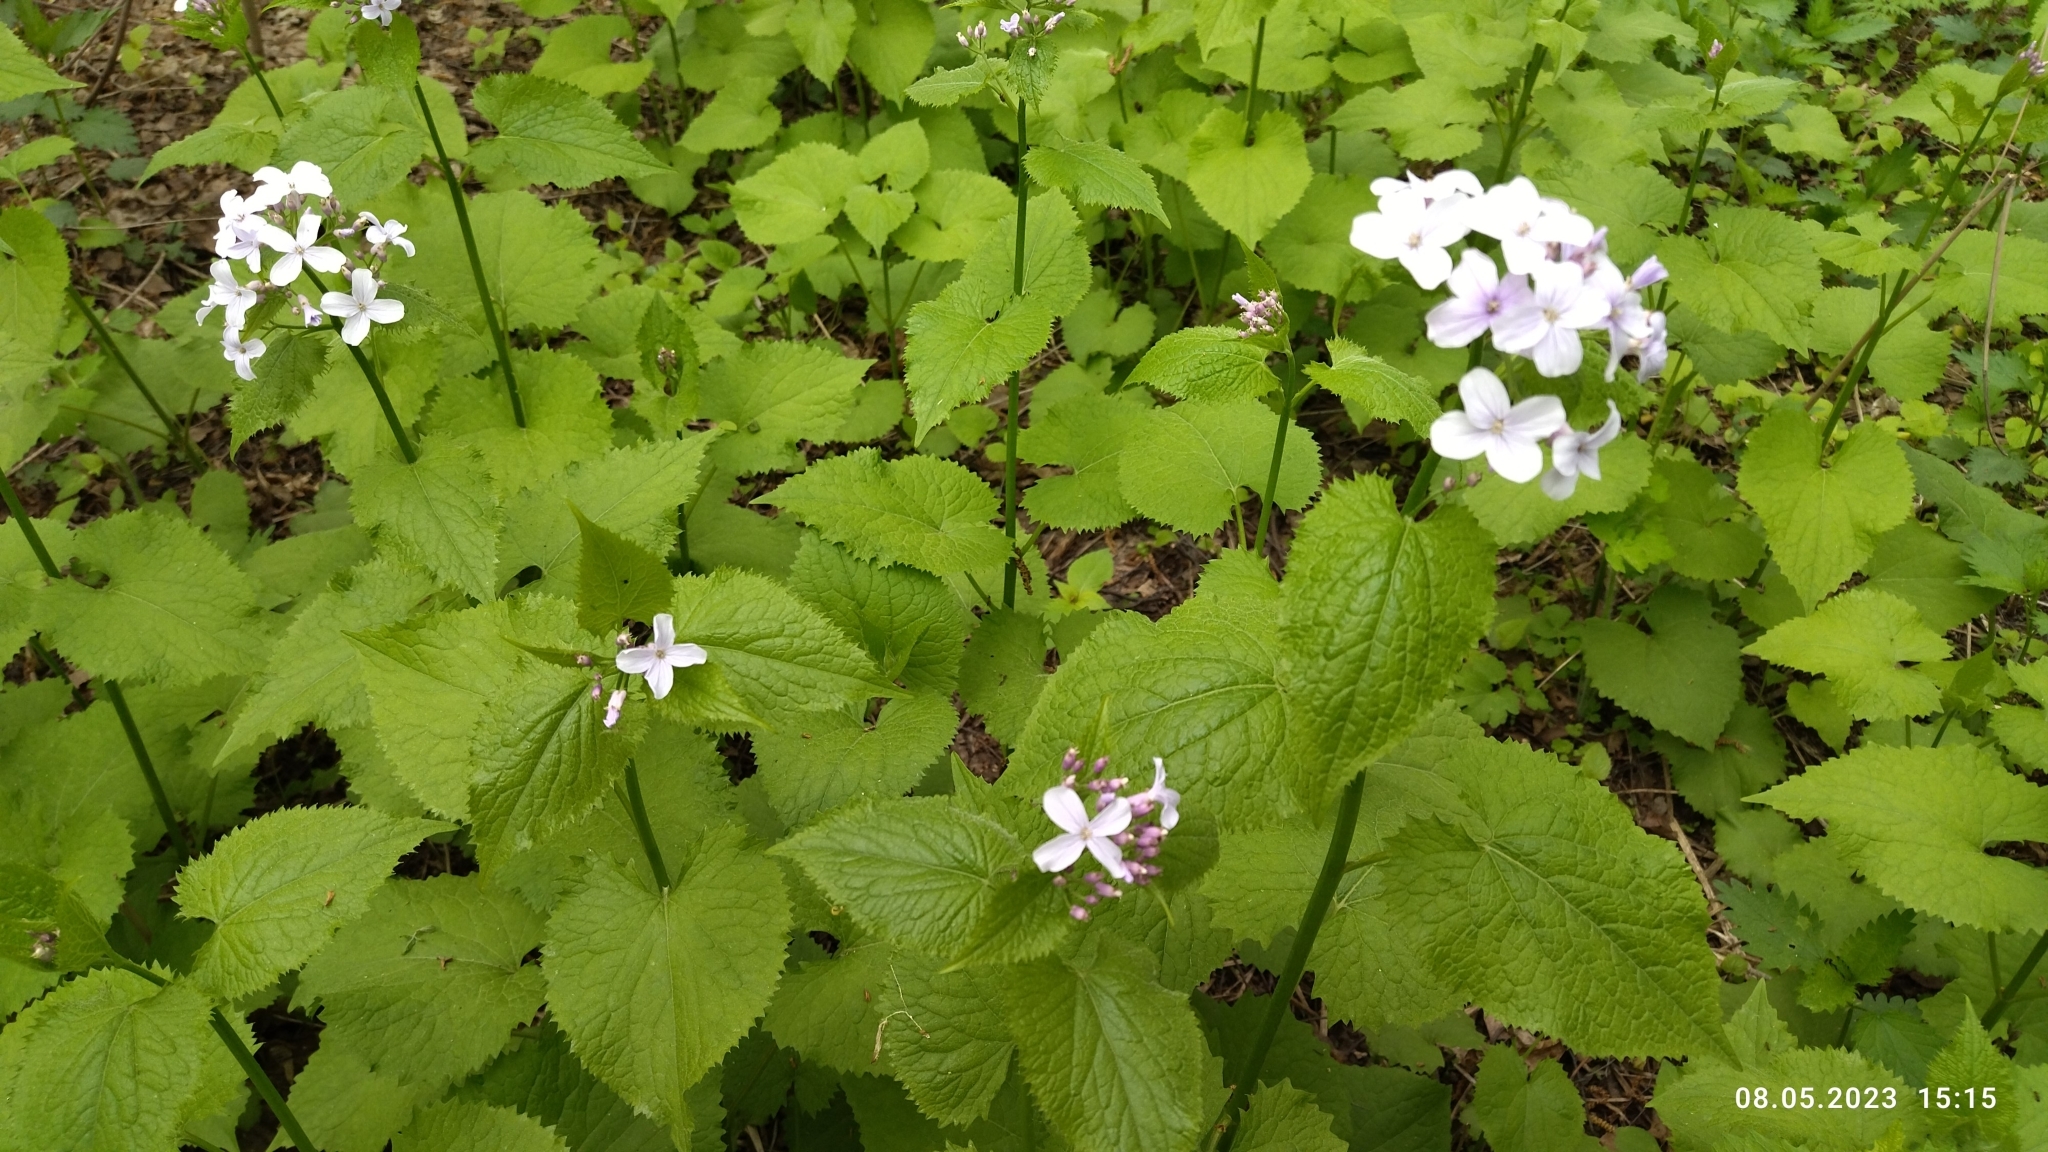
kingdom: Plantae
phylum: Tracheophyta
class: Magnoliopsida
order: Brassicales
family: Brassicaceae
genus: Lunaria
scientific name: Lunaria rediviva
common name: Perennial honesty
